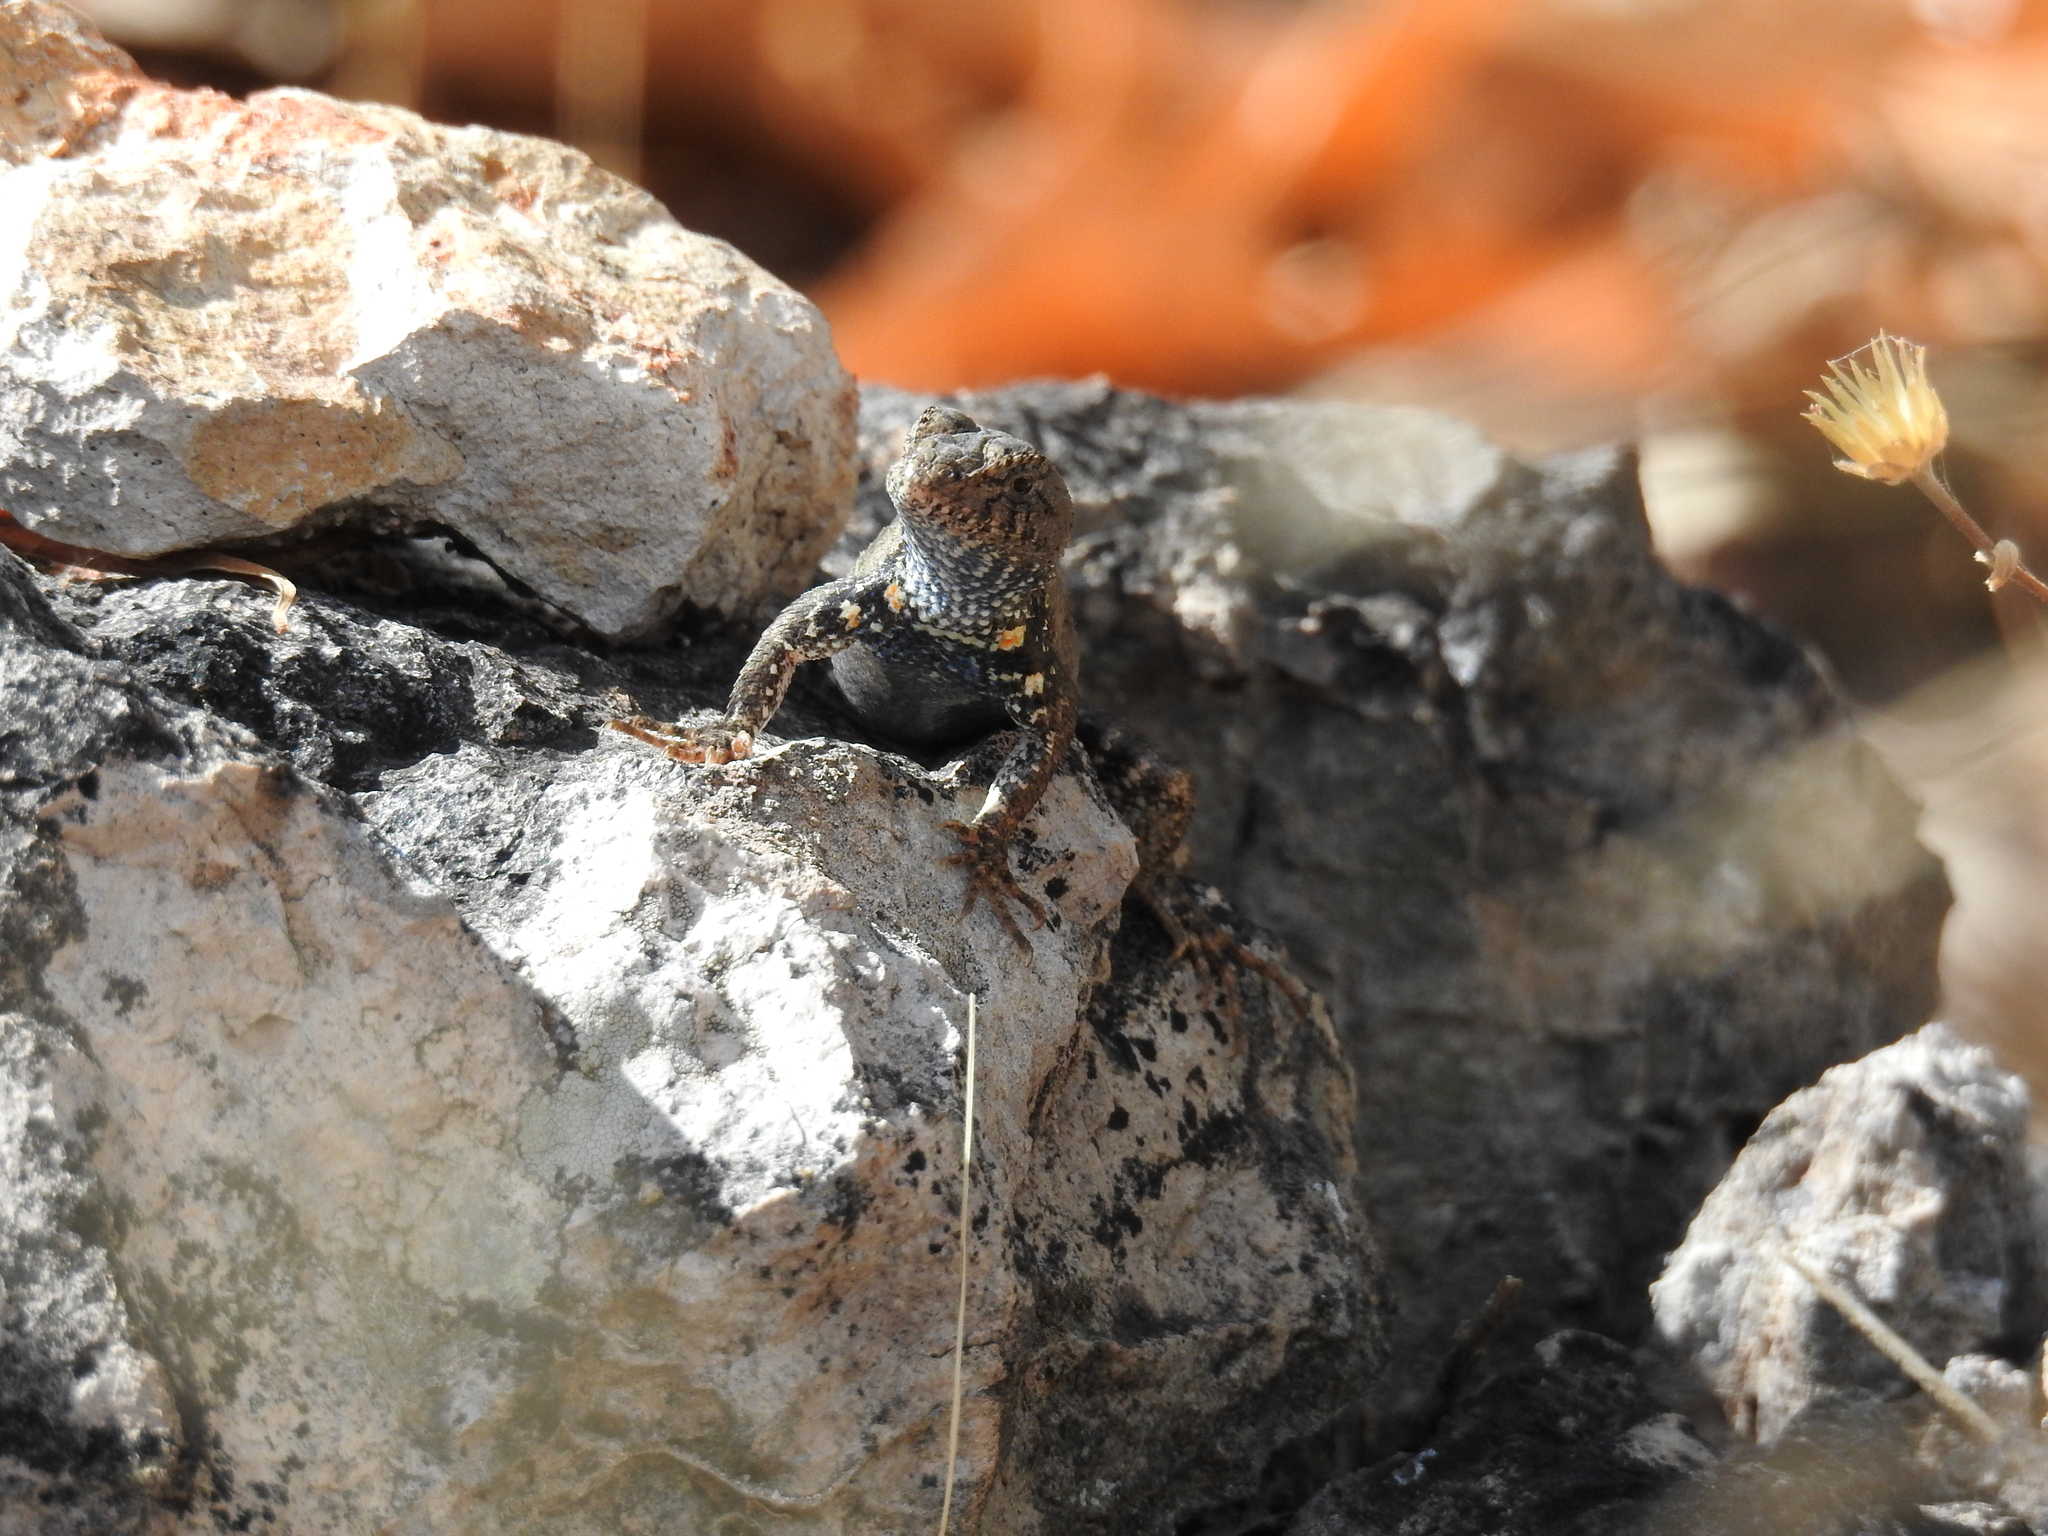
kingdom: Animalia
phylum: Chordata
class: Squamata
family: Phrynosomatidae
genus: Sceloporus
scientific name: Sceloporus nelsoni
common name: Nelson's spiny lizard
